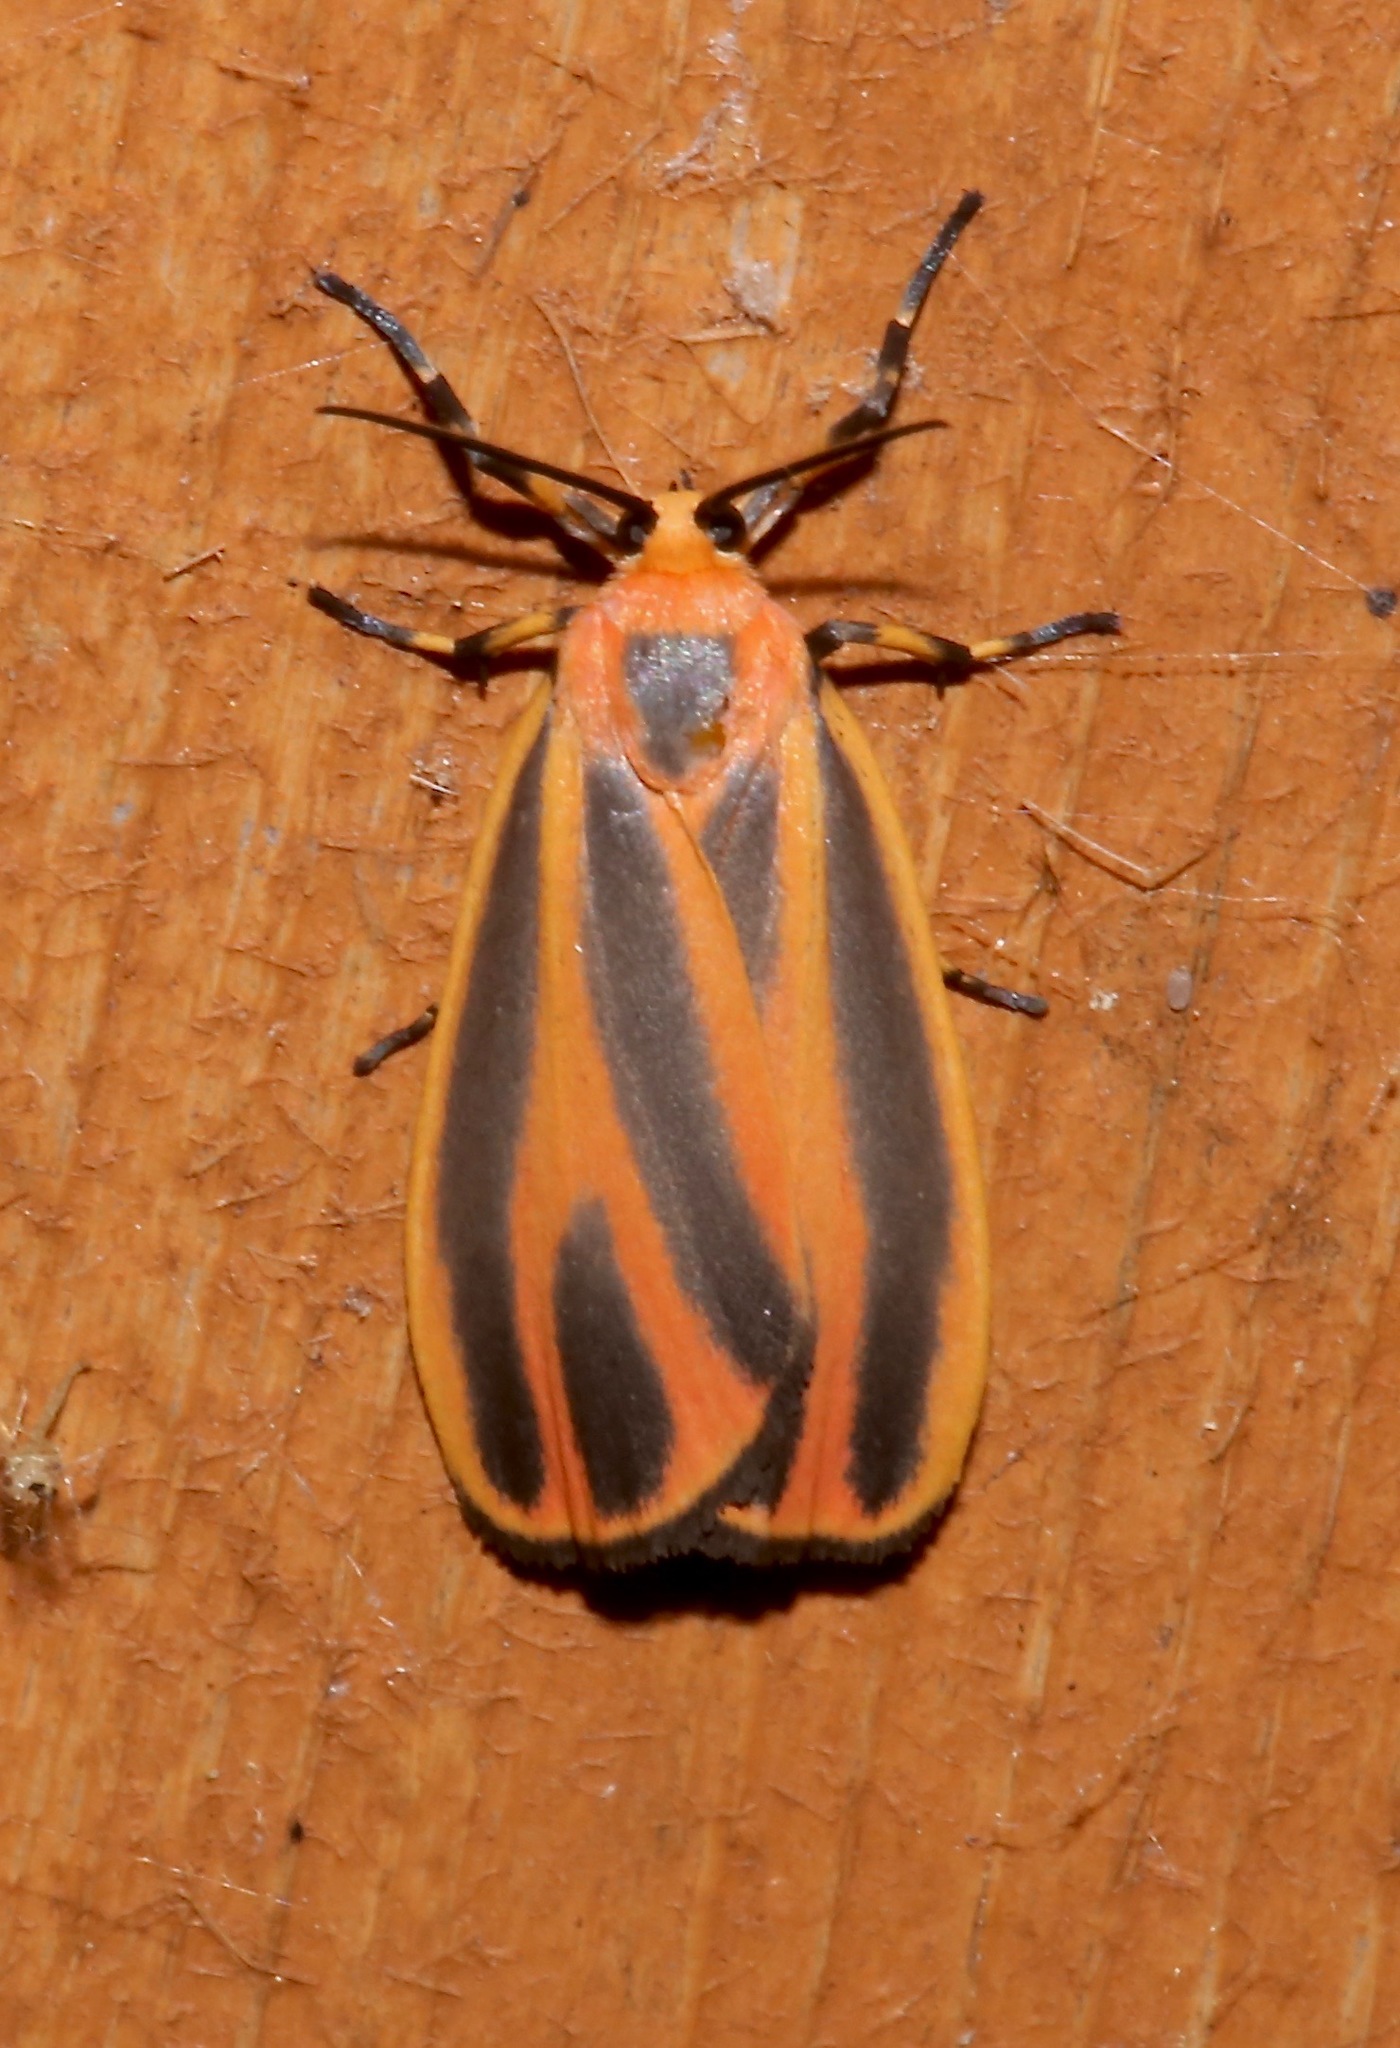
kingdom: Animalia
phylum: Arthropoda
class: Insecta
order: Lepidoptera
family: Erebidae
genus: Hypoprepia
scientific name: Hypoprepia fucosa
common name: Painted lichen moth
